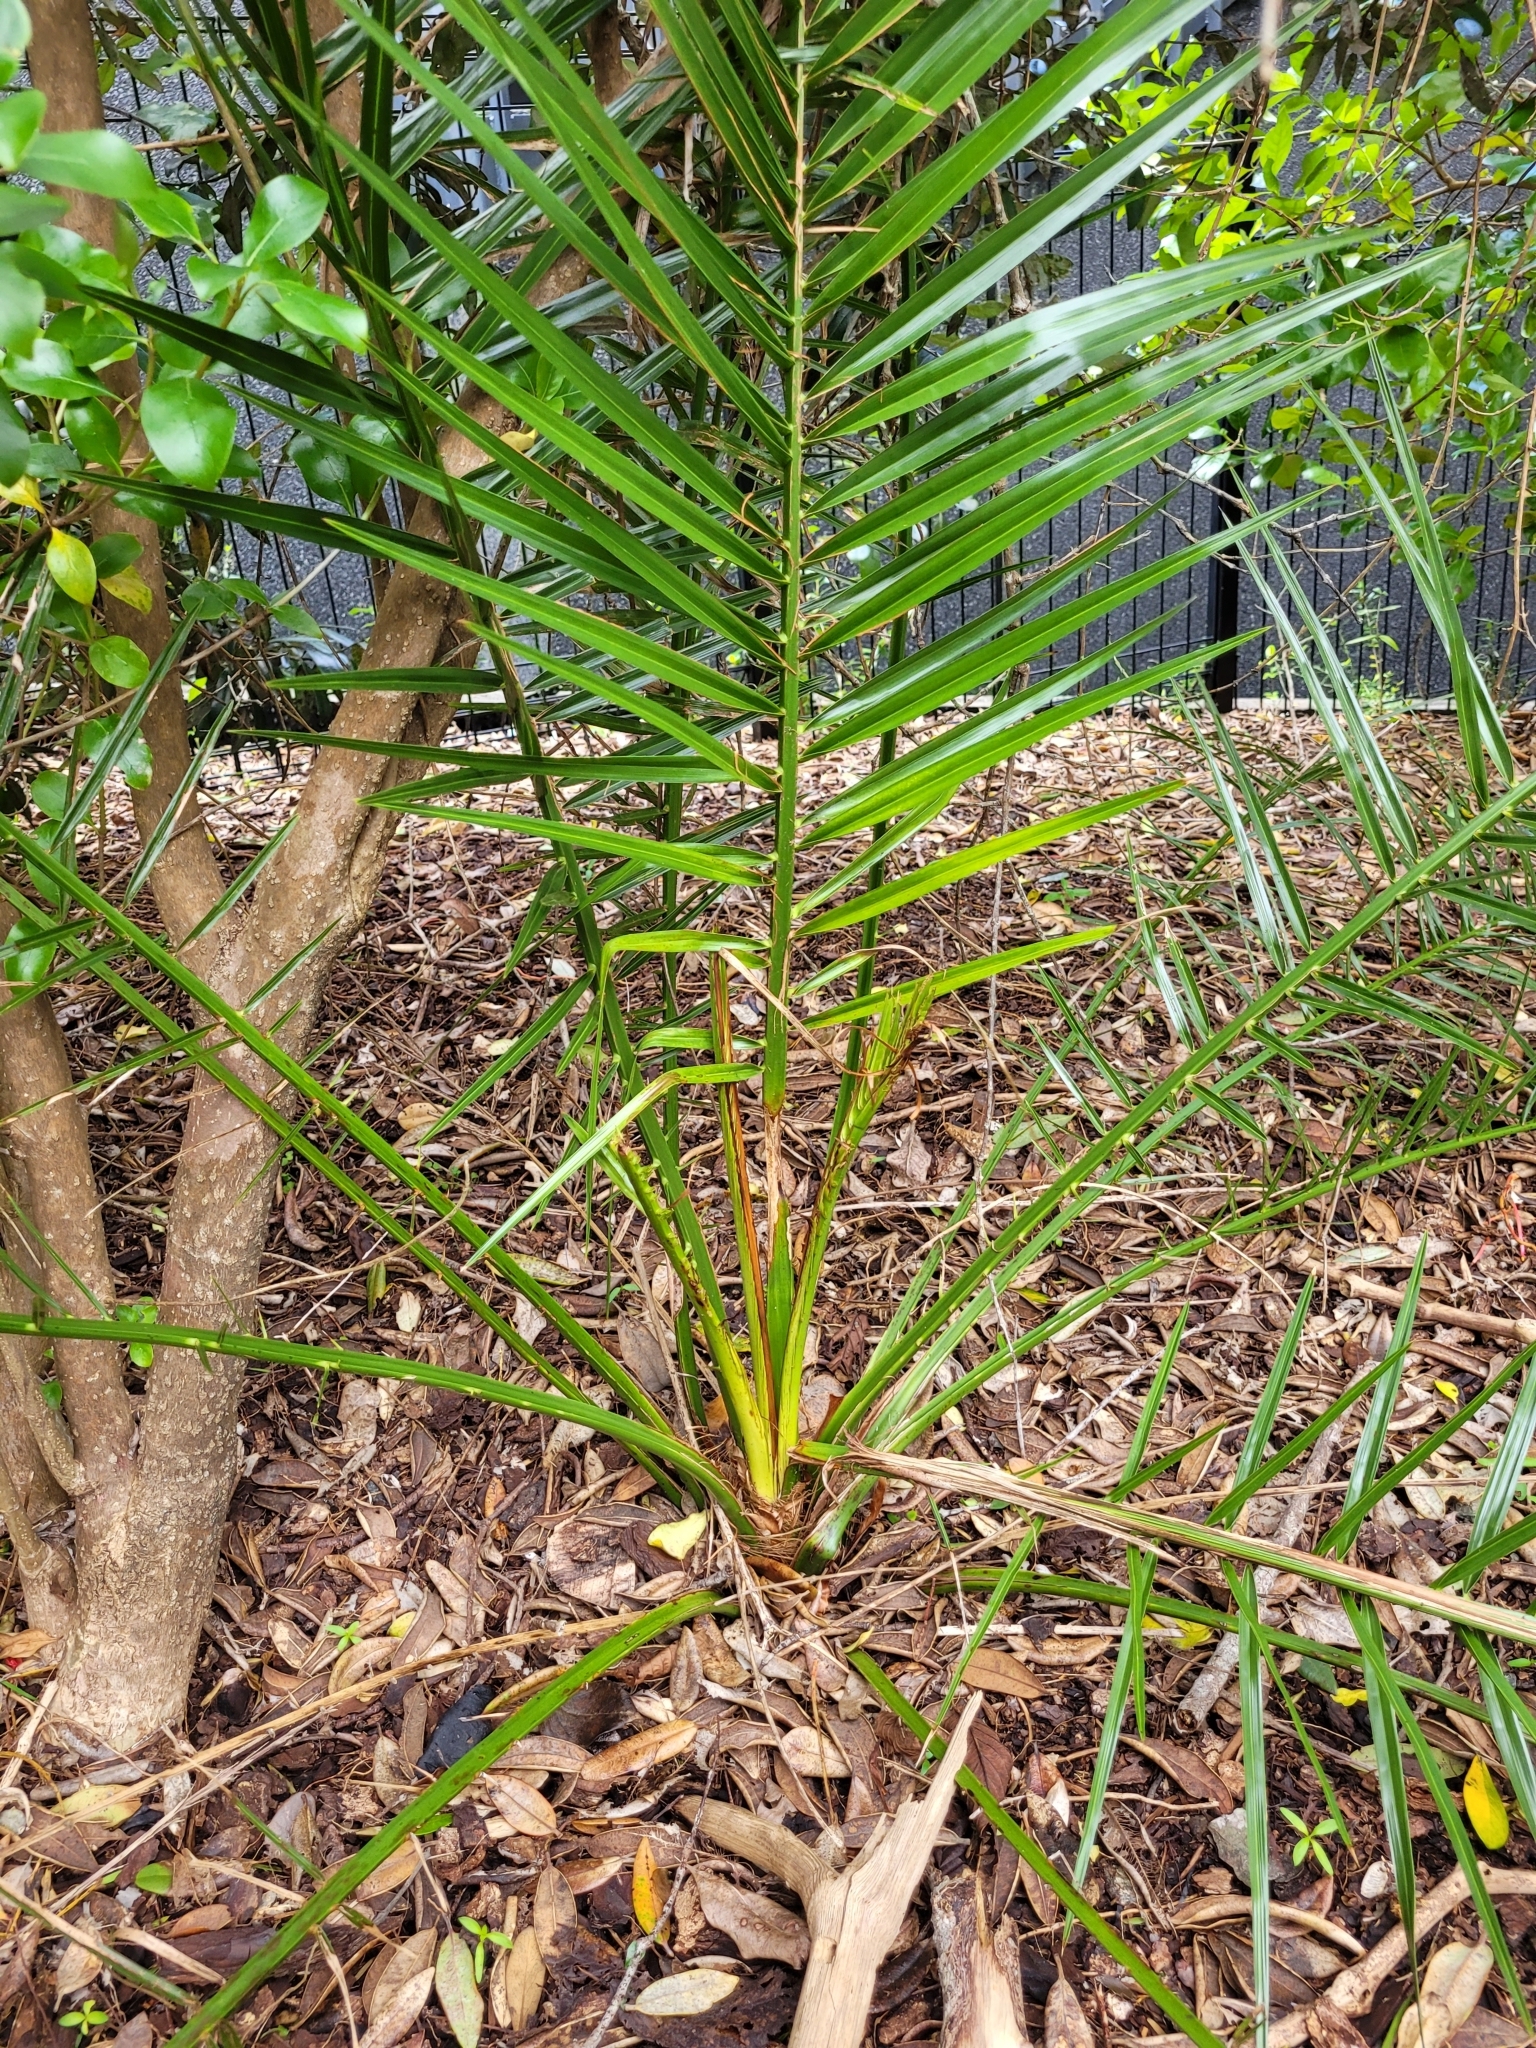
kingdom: Plantae
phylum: Tracheophyta
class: Liliopsida
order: Arecales
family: Arecaceae
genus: Phoenix
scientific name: Phoenix canariensis
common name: Canary island date palm
